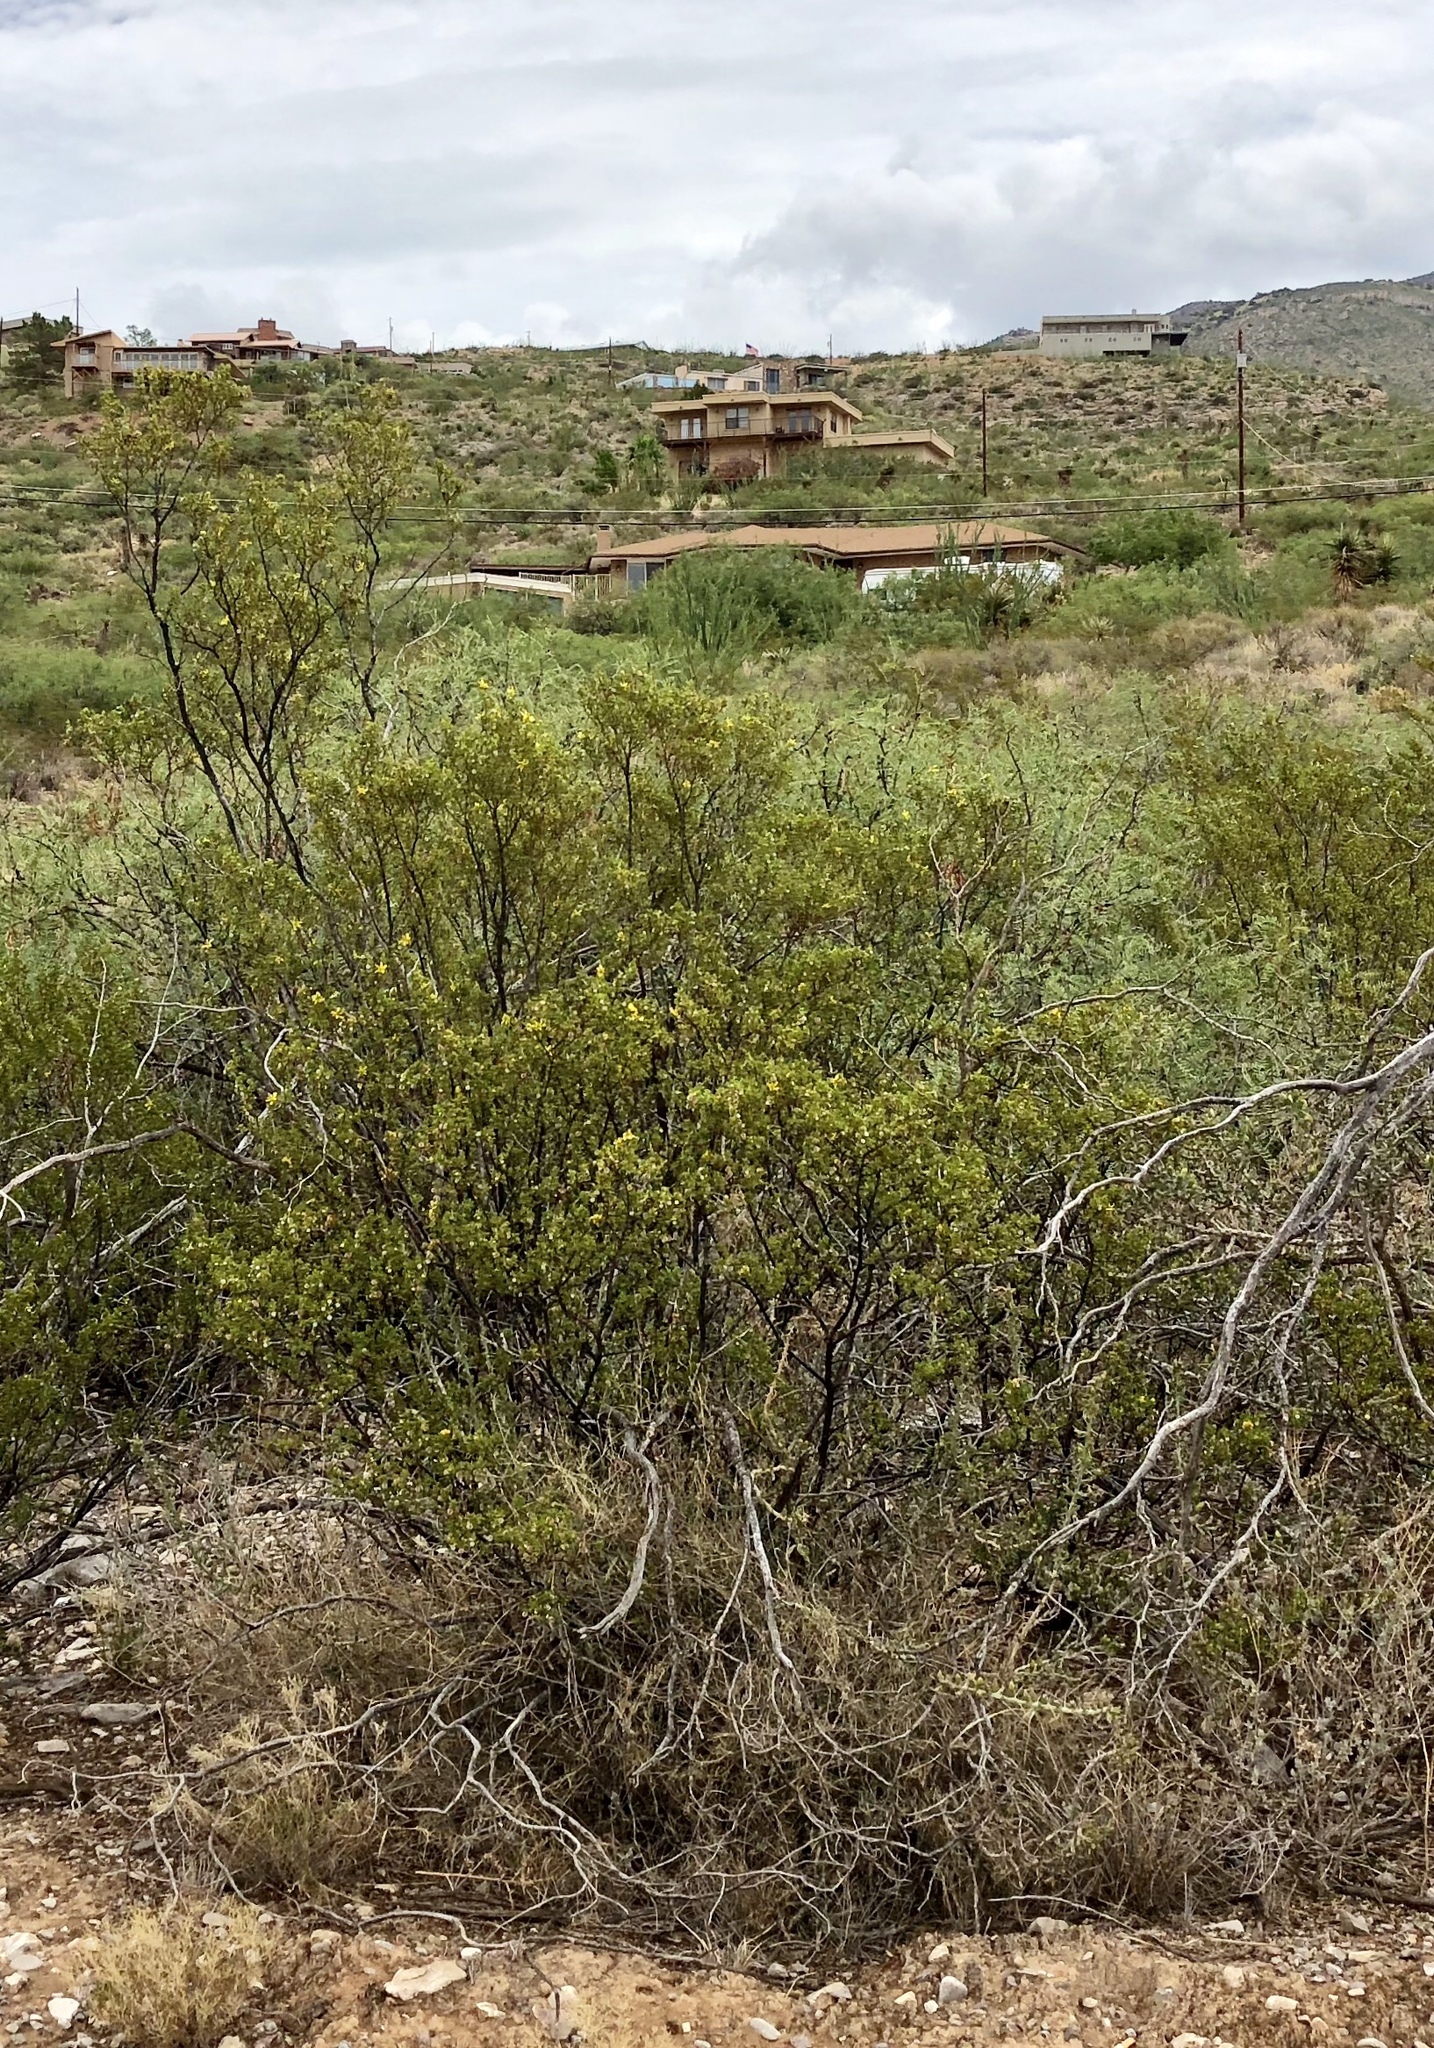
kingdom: Plantae
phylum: Tracheophyta
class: Magnoliopsida
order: Zygophyllales
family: Zygophyllaceae
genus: Larrea
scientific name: Larrea tridentata
